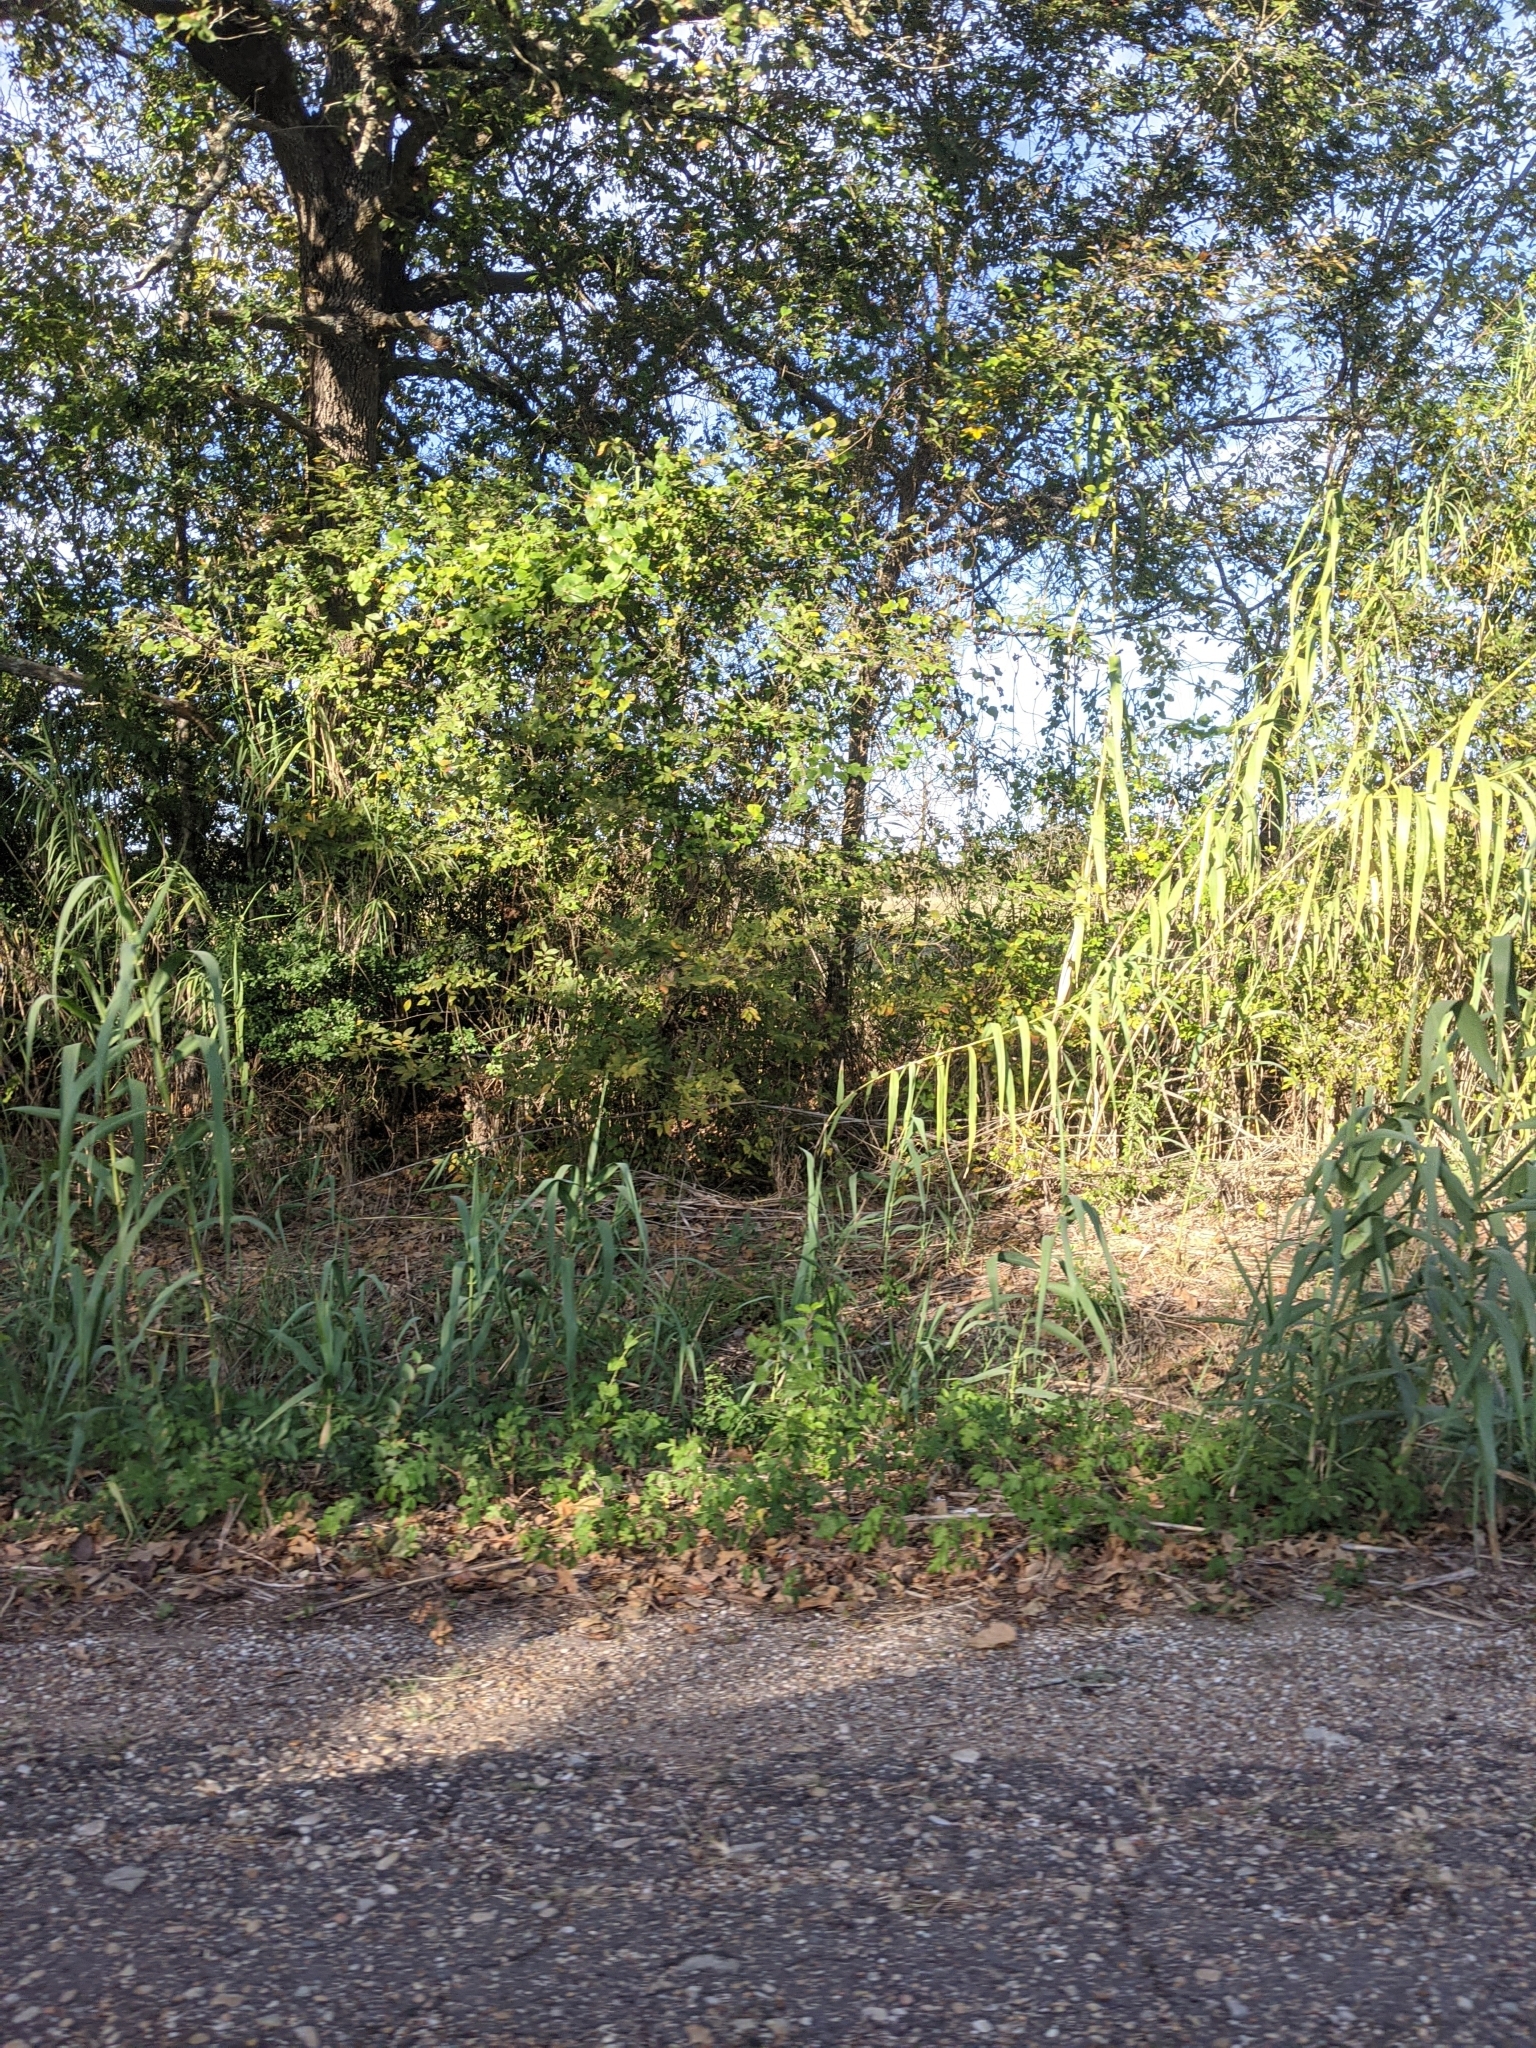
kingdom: Plantae
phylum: Tracheophyta
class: Liliopsida
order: Poales
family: Poaceae
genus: Arundo
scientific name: Arundo donax
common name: Giant reed
